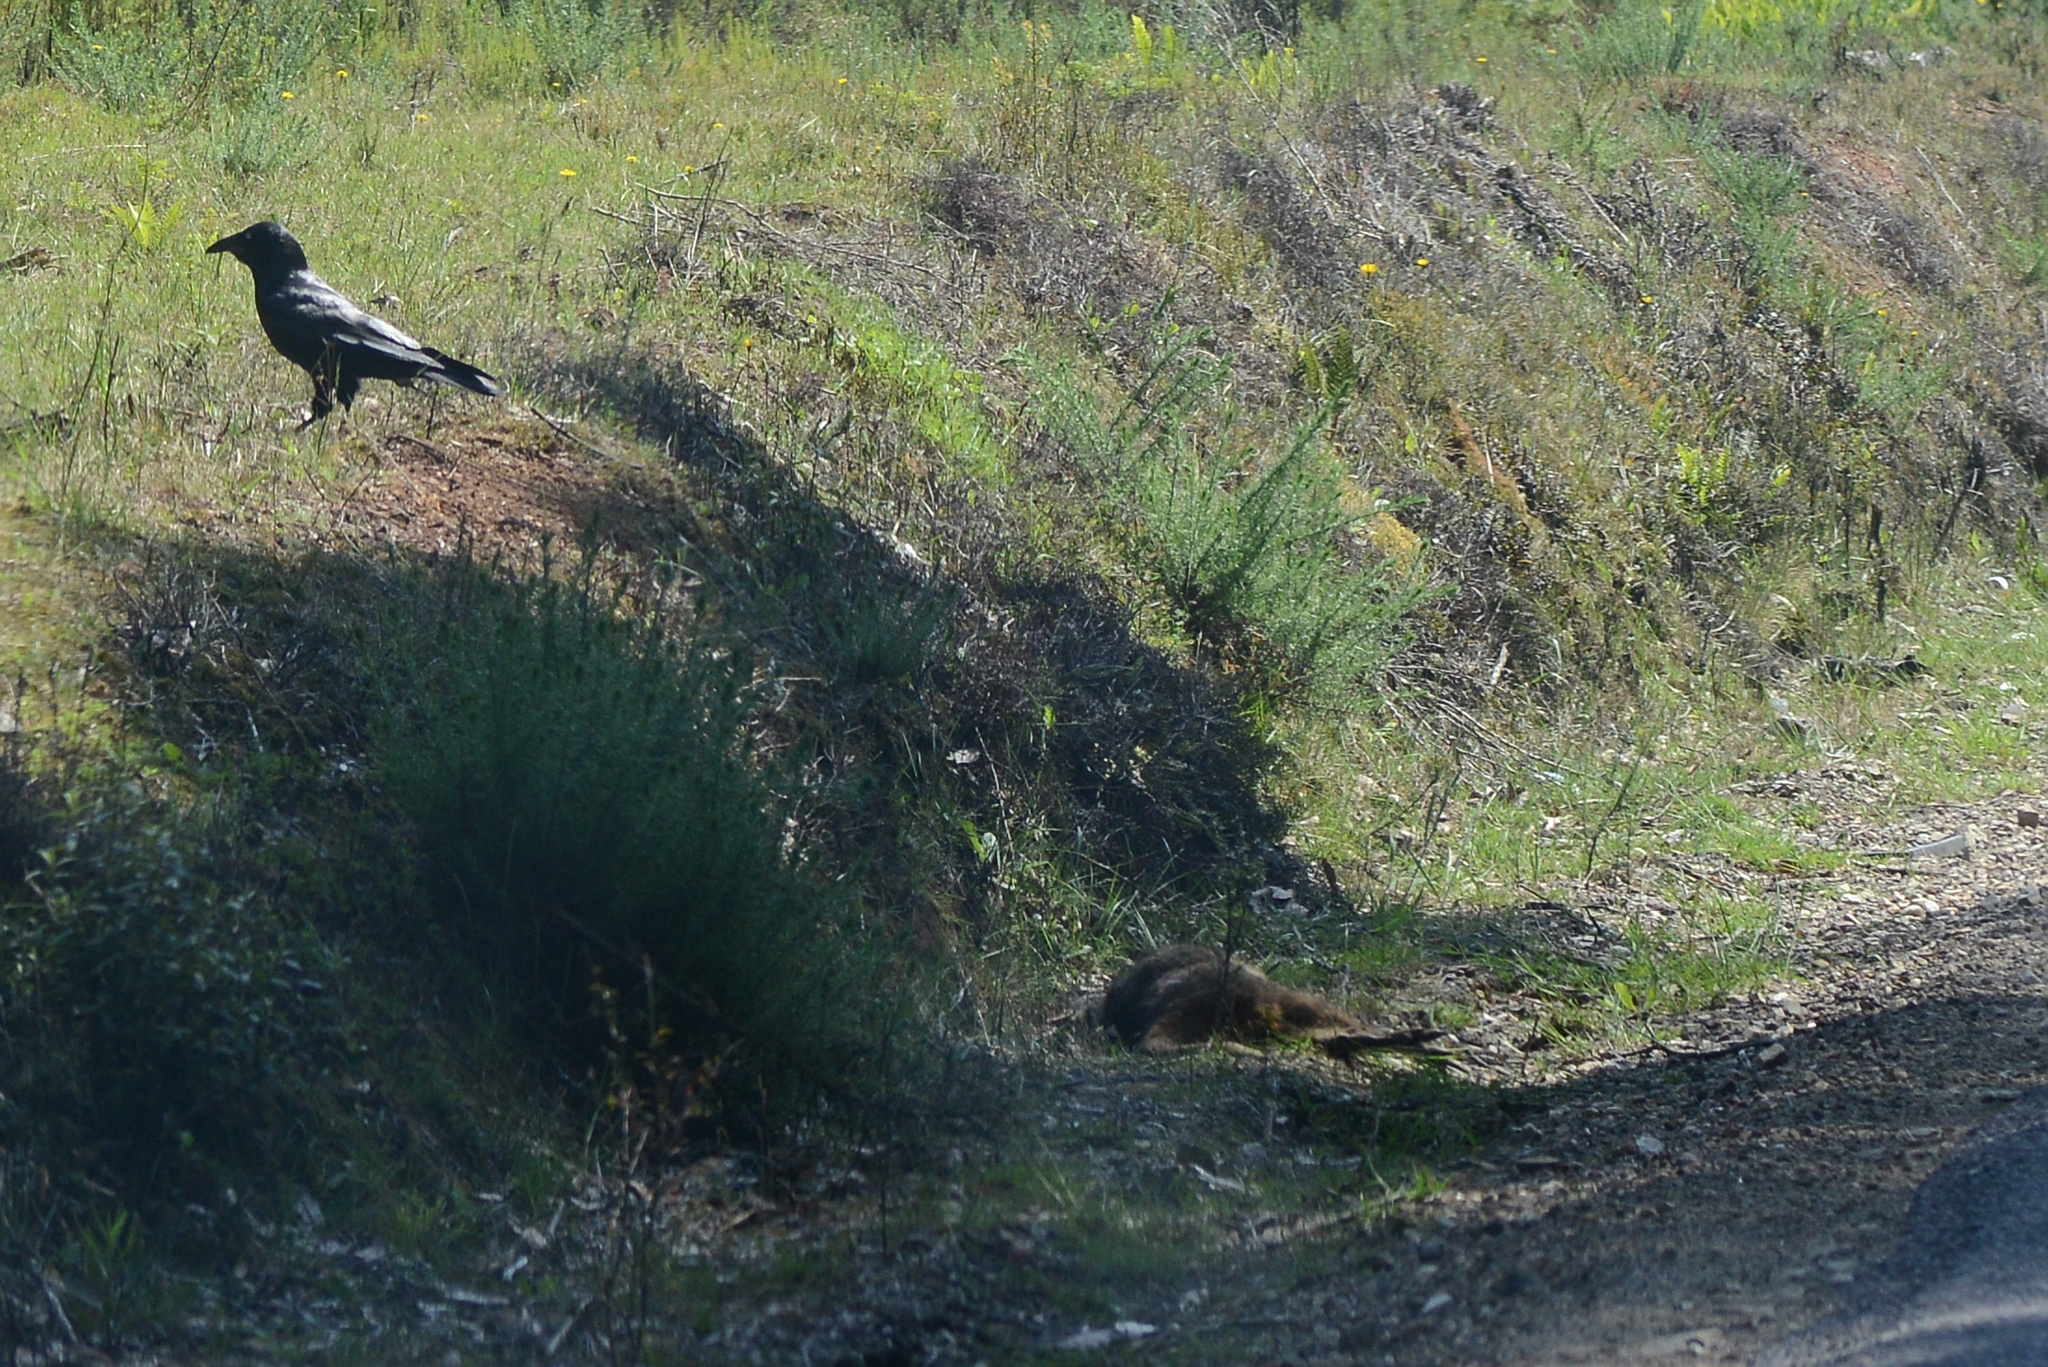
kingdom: Animalia
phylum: Chordata
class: Mammalia
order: Diprotodontia
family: Macropodidae
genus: Thylogale
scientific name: Thylogale billardierii
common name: Tasmanian pademelon
